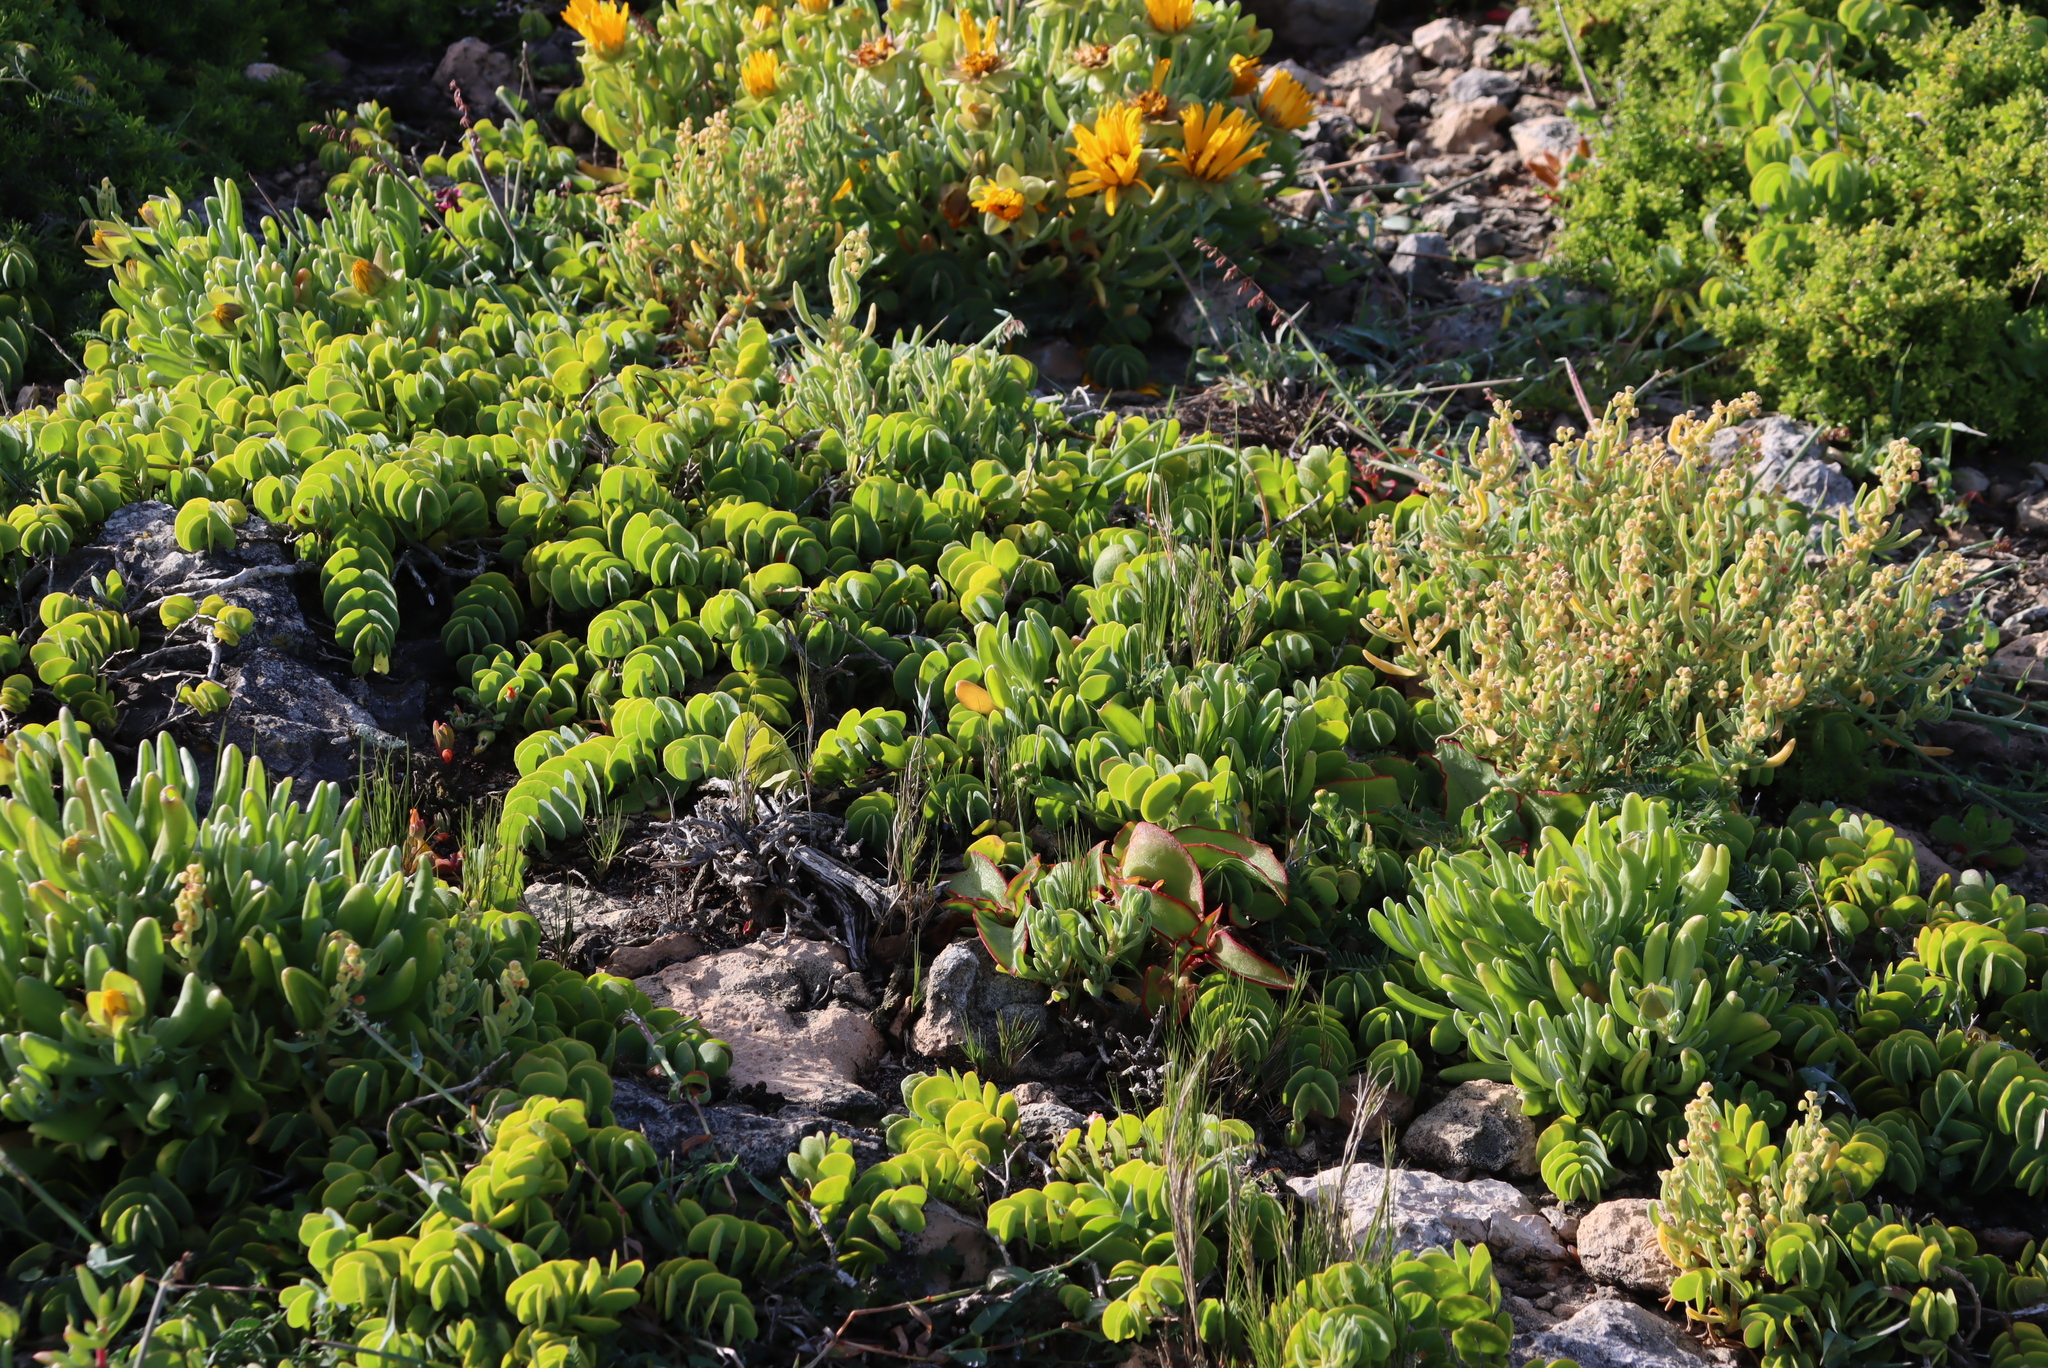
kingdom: Plantae
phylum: Tracheophyta
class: Magnoliopsida
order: Zygophyllales
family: Zygophyllaceae
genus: Roepera
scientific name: Roepera cordifolia
